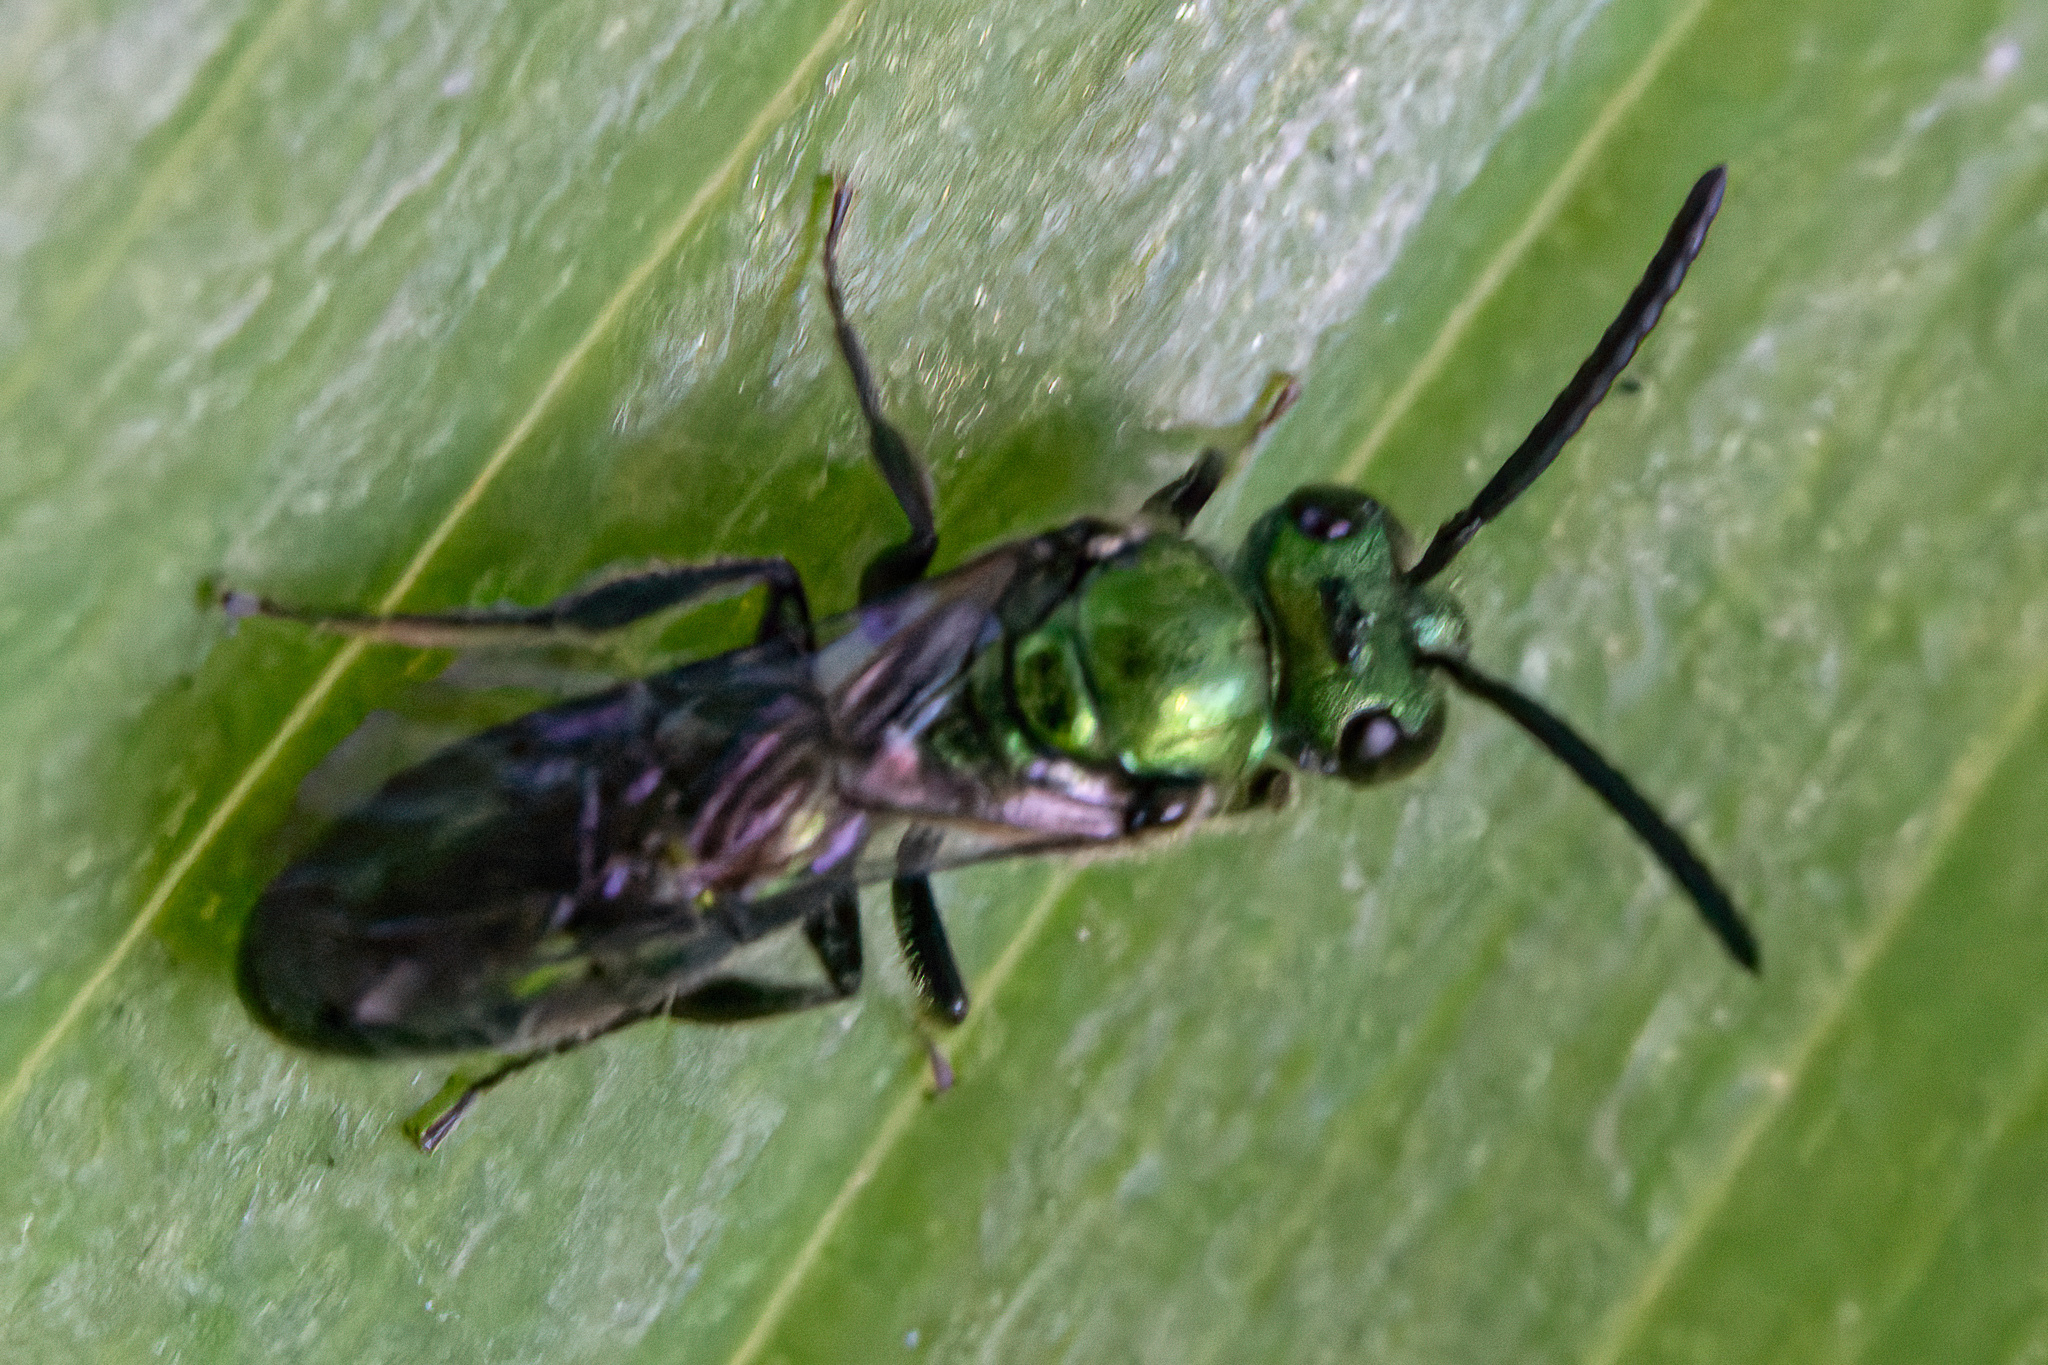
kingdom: Animalia
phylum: Arthropoda
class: Insecta
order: Hymenoptera
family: Halictidae
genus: Augochlora
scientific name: Augochlora pura
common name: Pure green sweat bee
